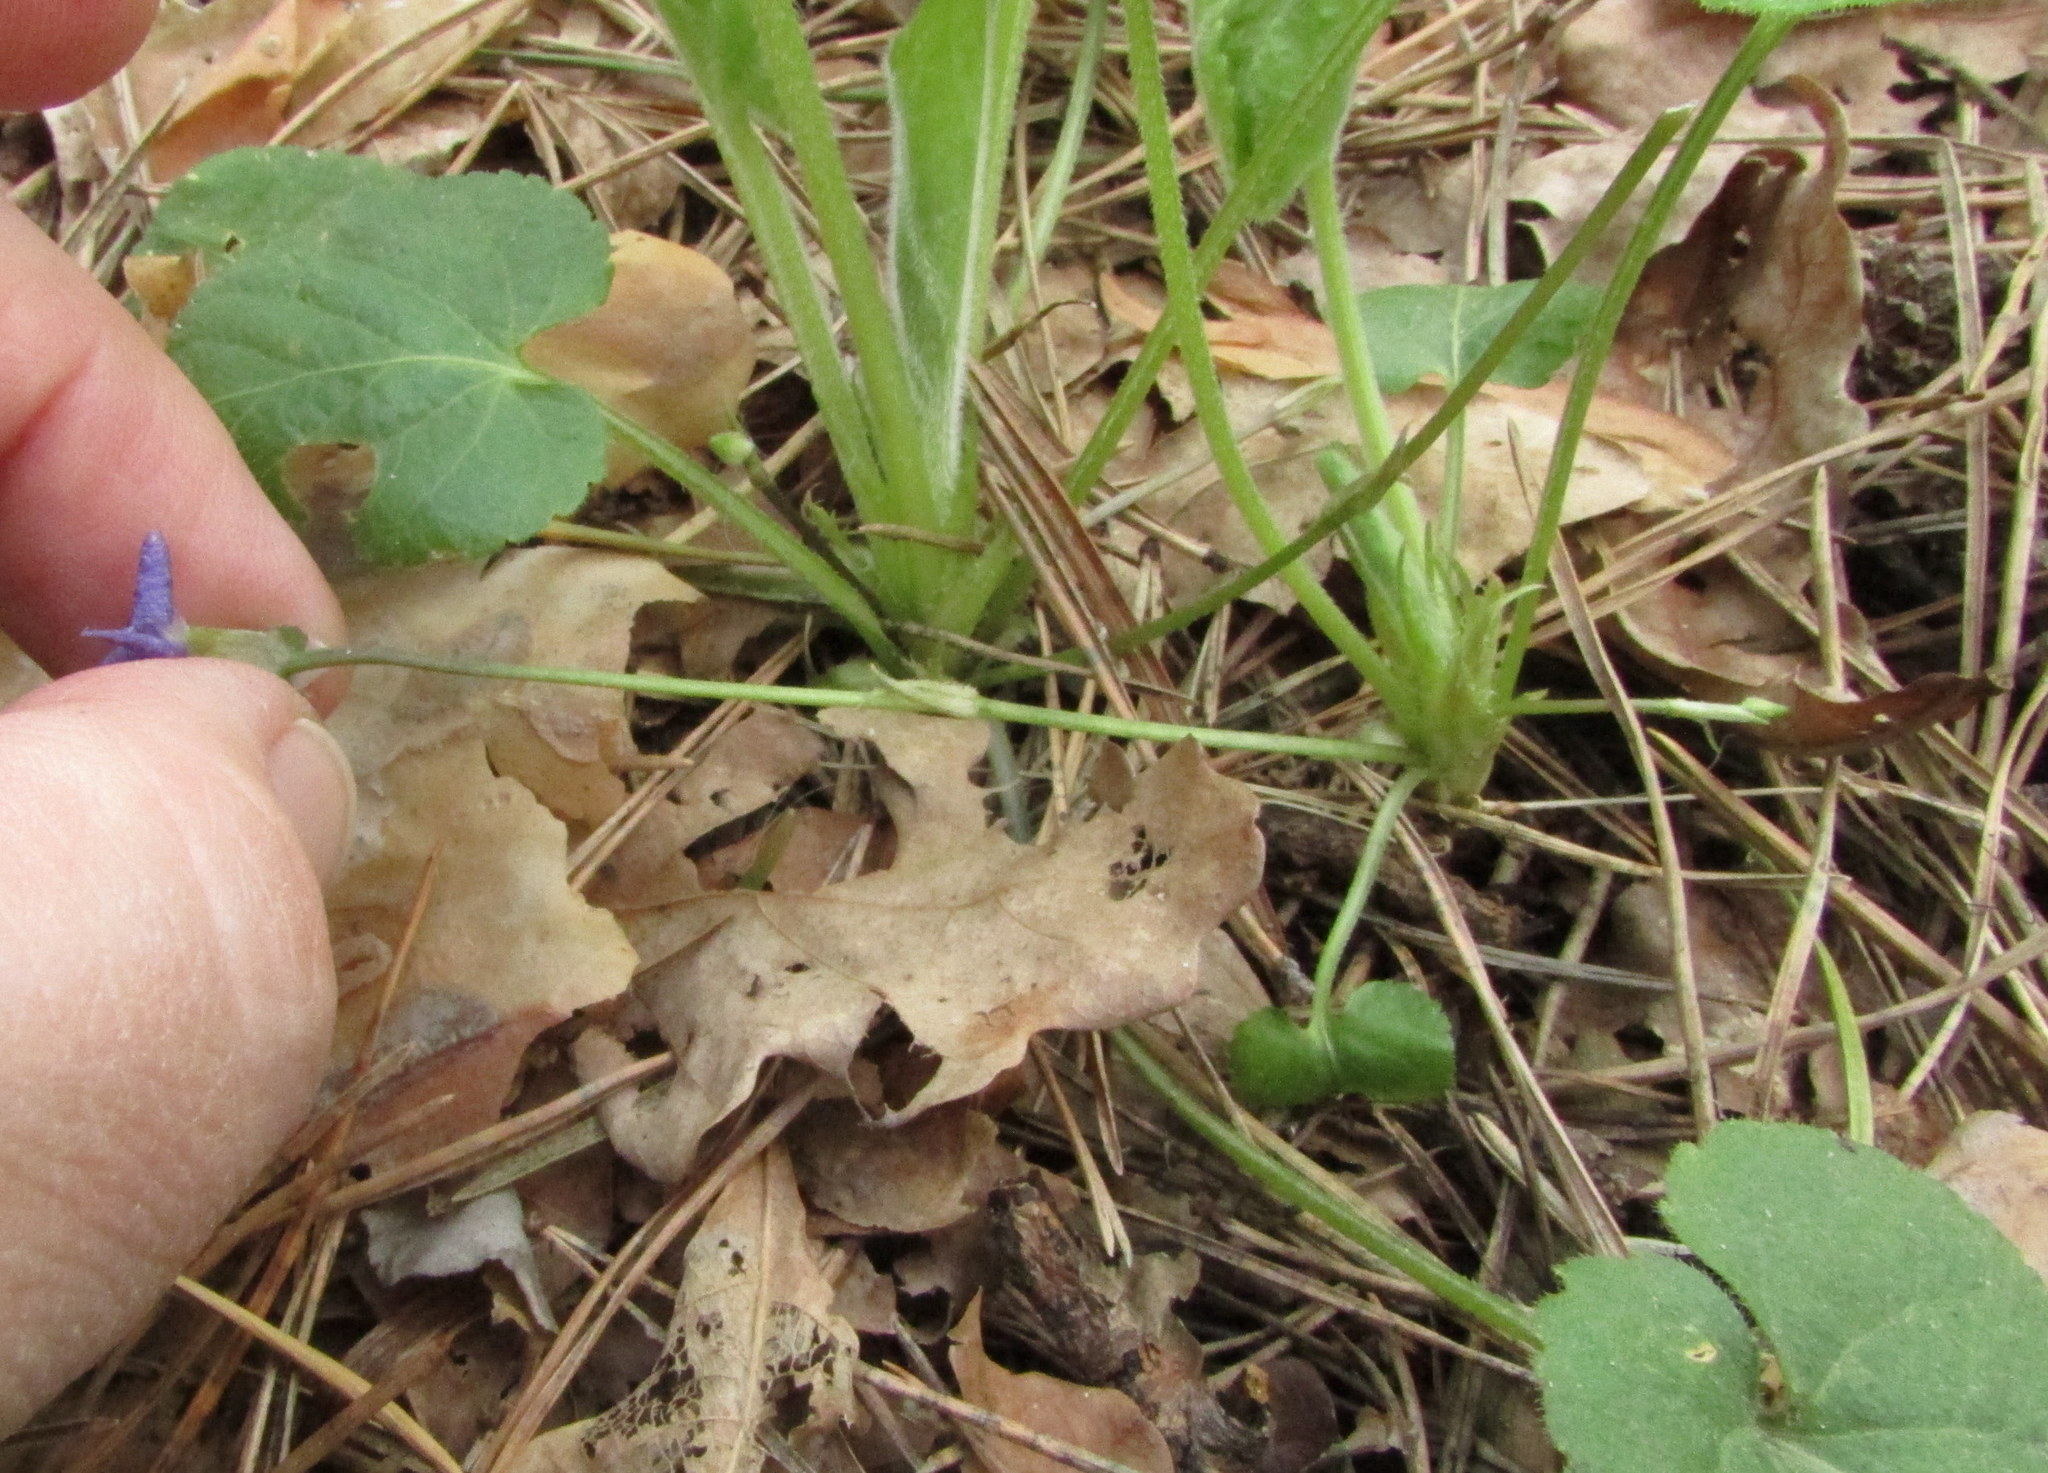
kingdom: Plantae
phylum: Tracheophyta
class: Magnoliopsida
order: Malpighiales
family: Violaceae
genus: Viola
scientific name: Viola collina
